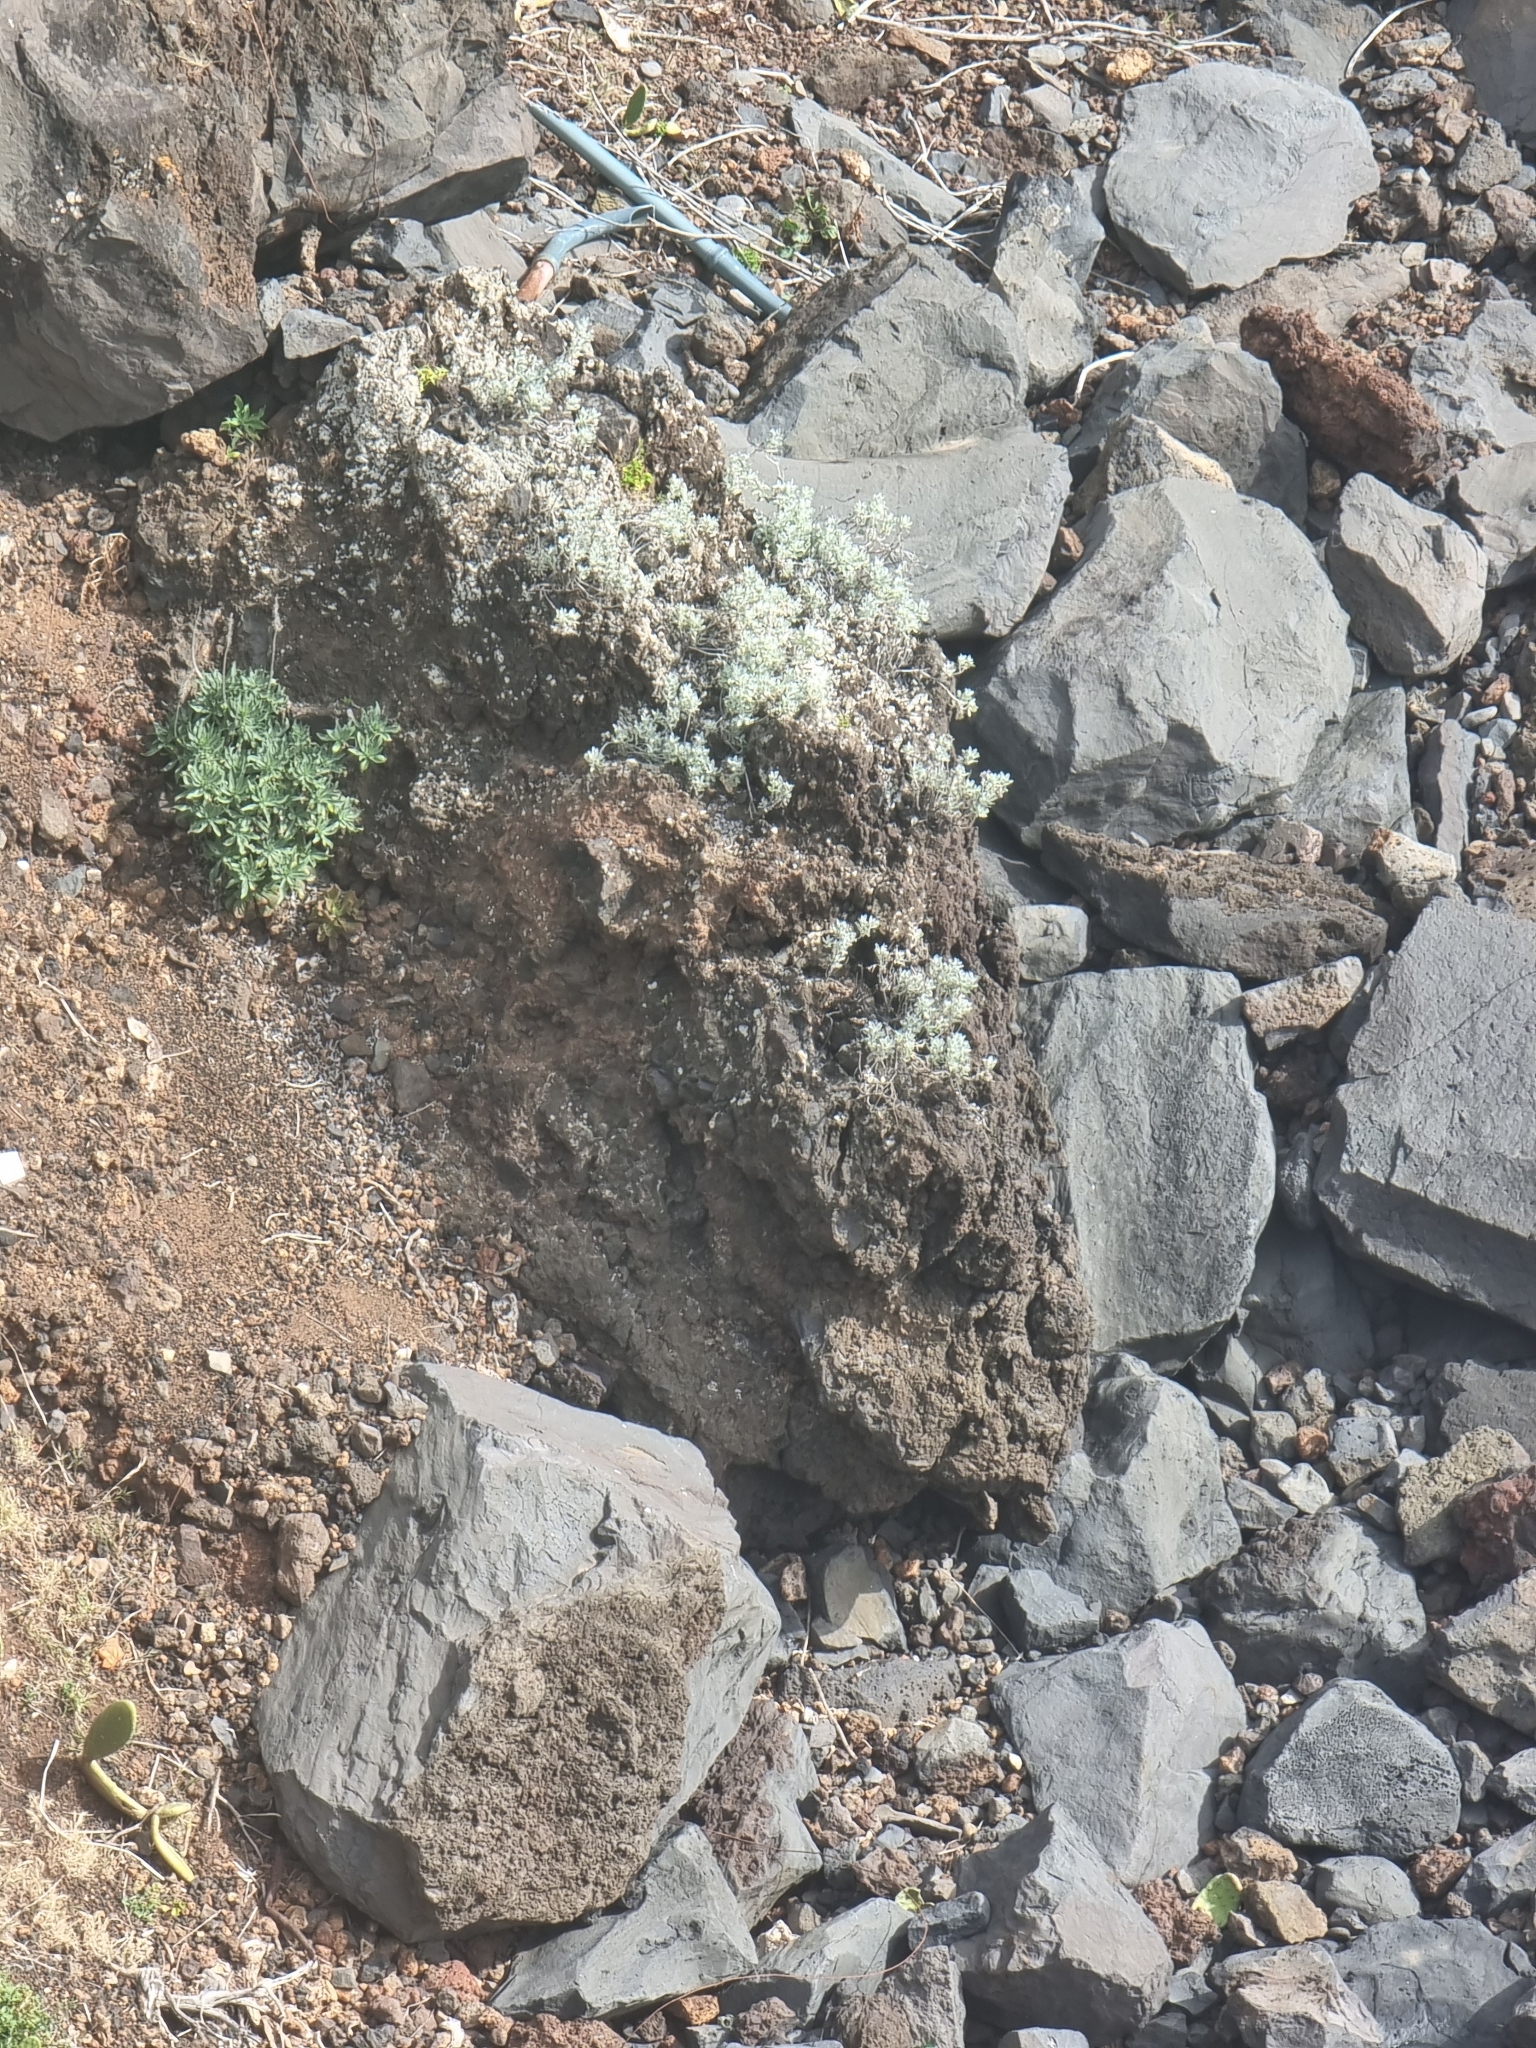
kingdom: Plantae
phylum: Tracheophyta
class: Magnoliopsida
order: Asterales
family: Asteraceae
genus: Helichrysum
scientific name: Helichrysum obconicum
